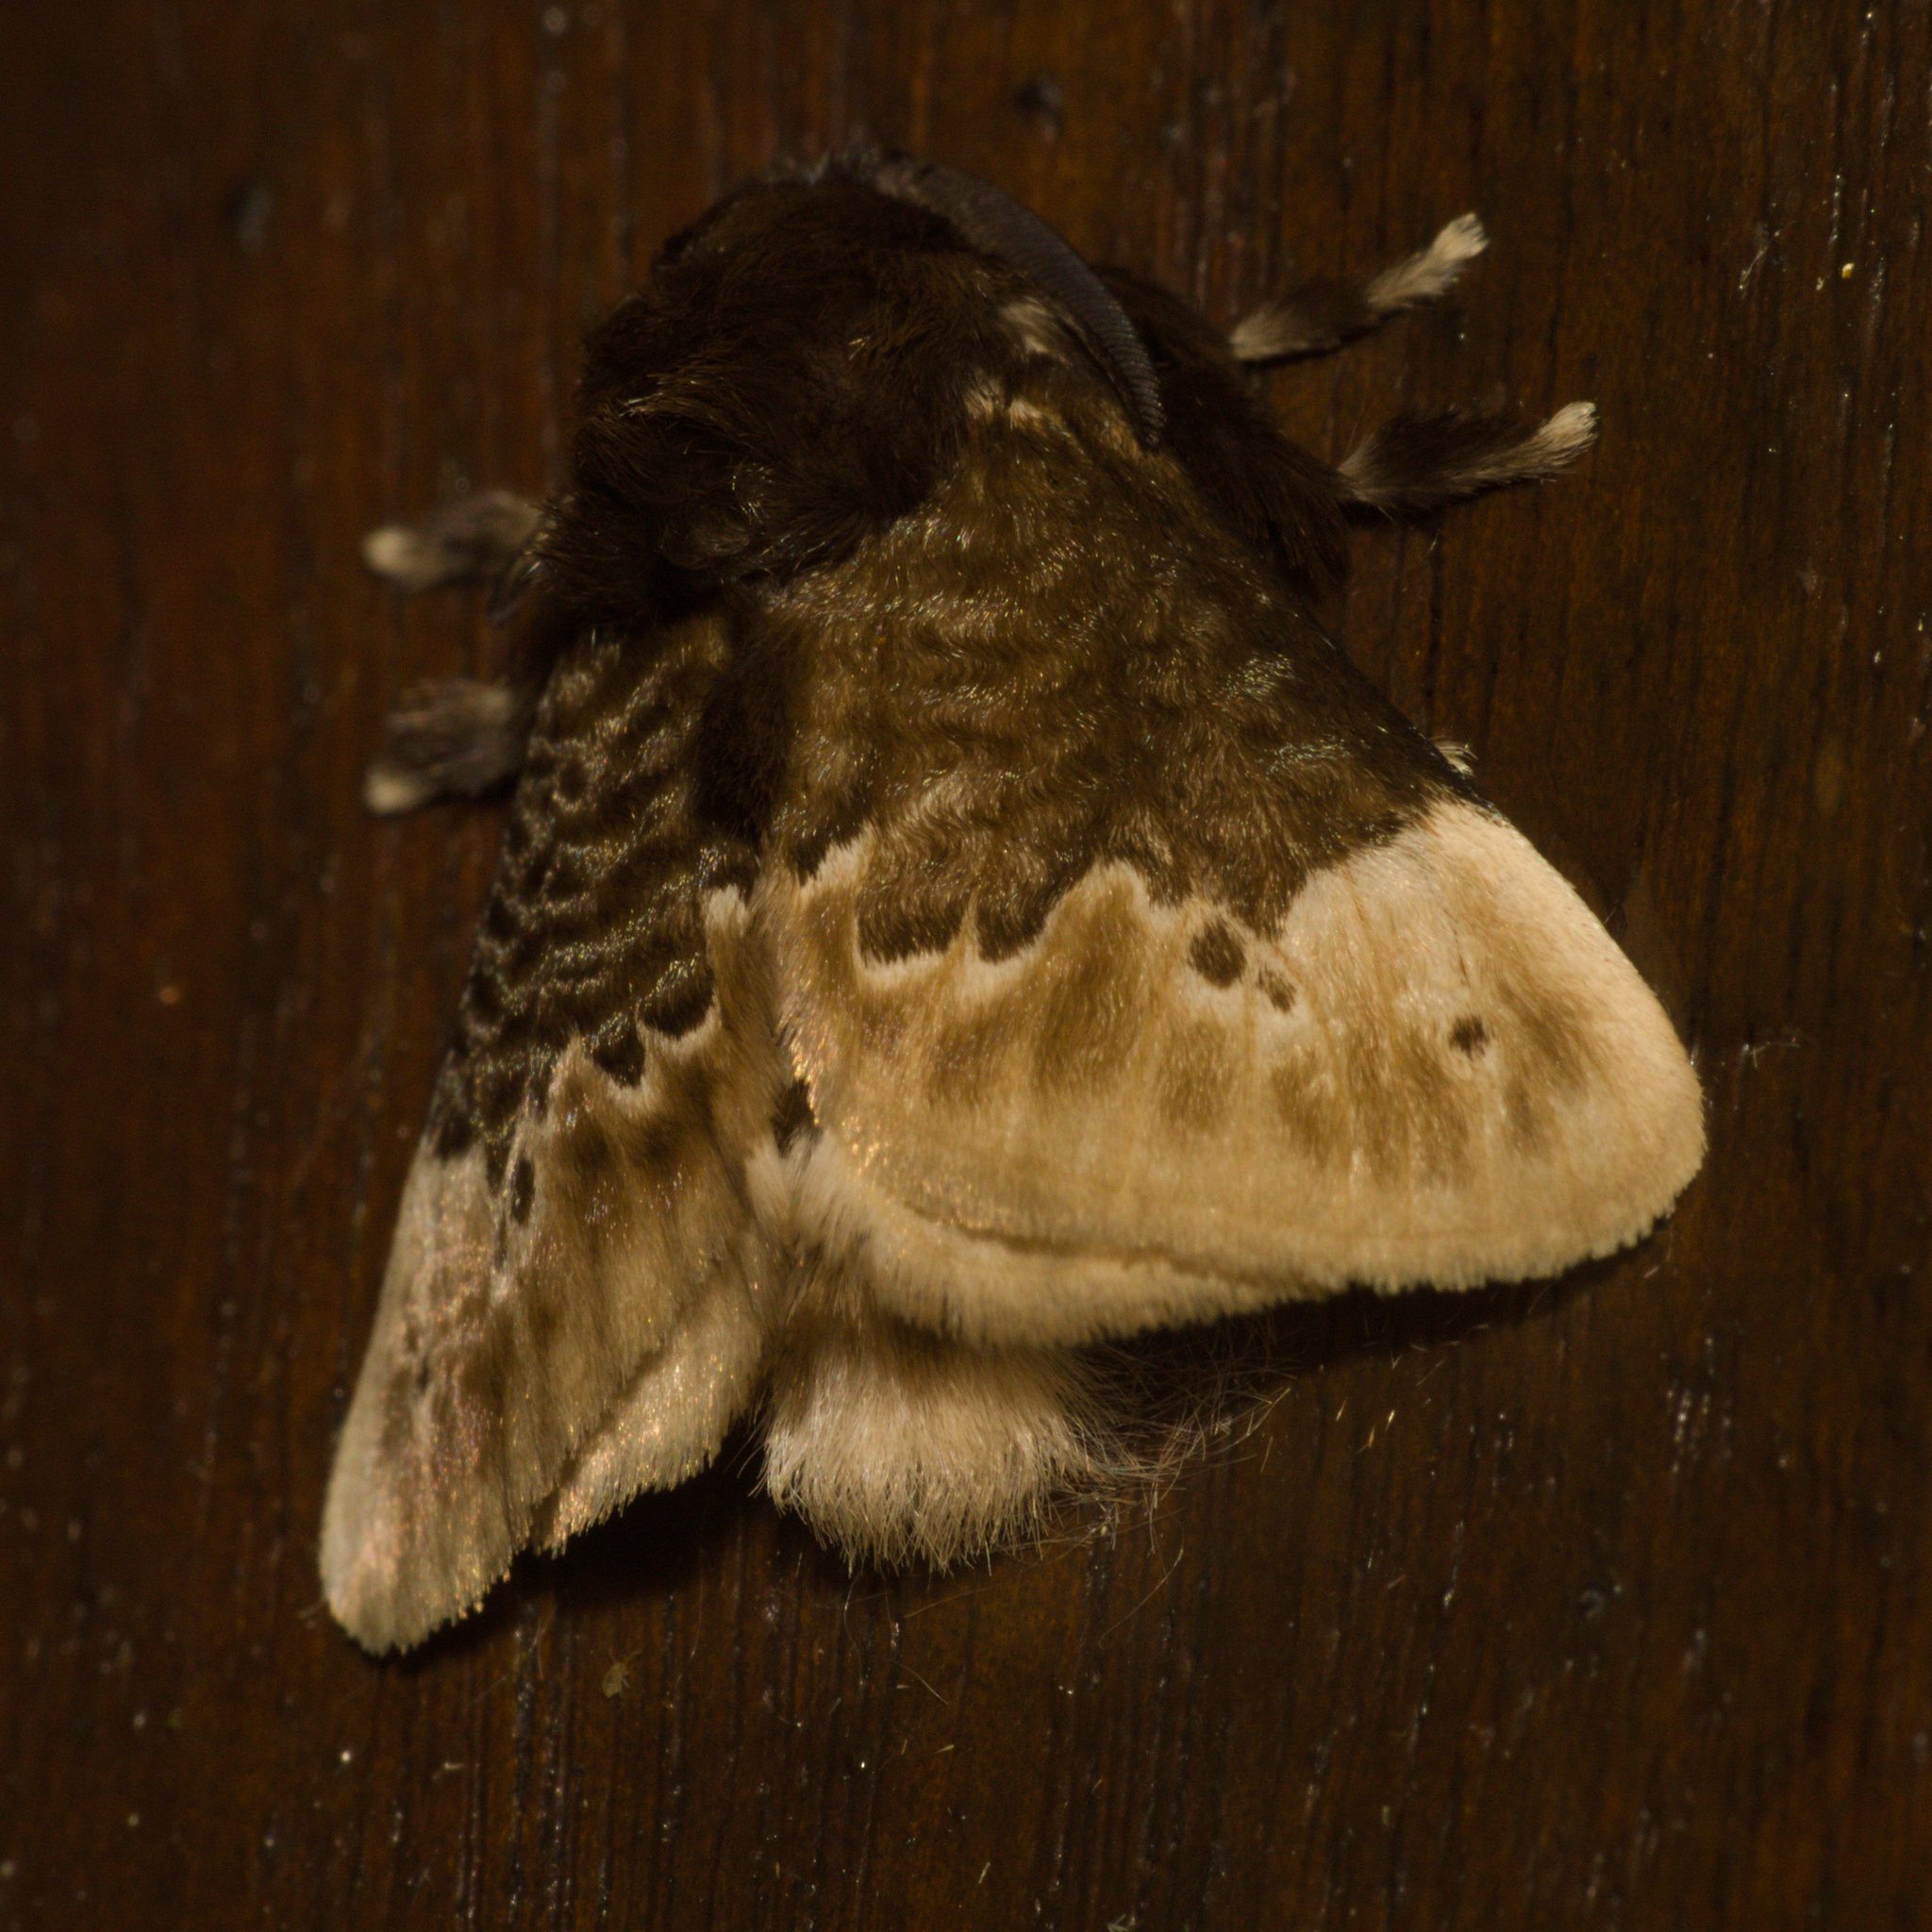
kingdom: Animalia
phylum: Arthropoda
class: Insecta
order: Lepidoptera
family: Megalopygidae
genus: Podalia
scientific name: Podalia dimidiatus
